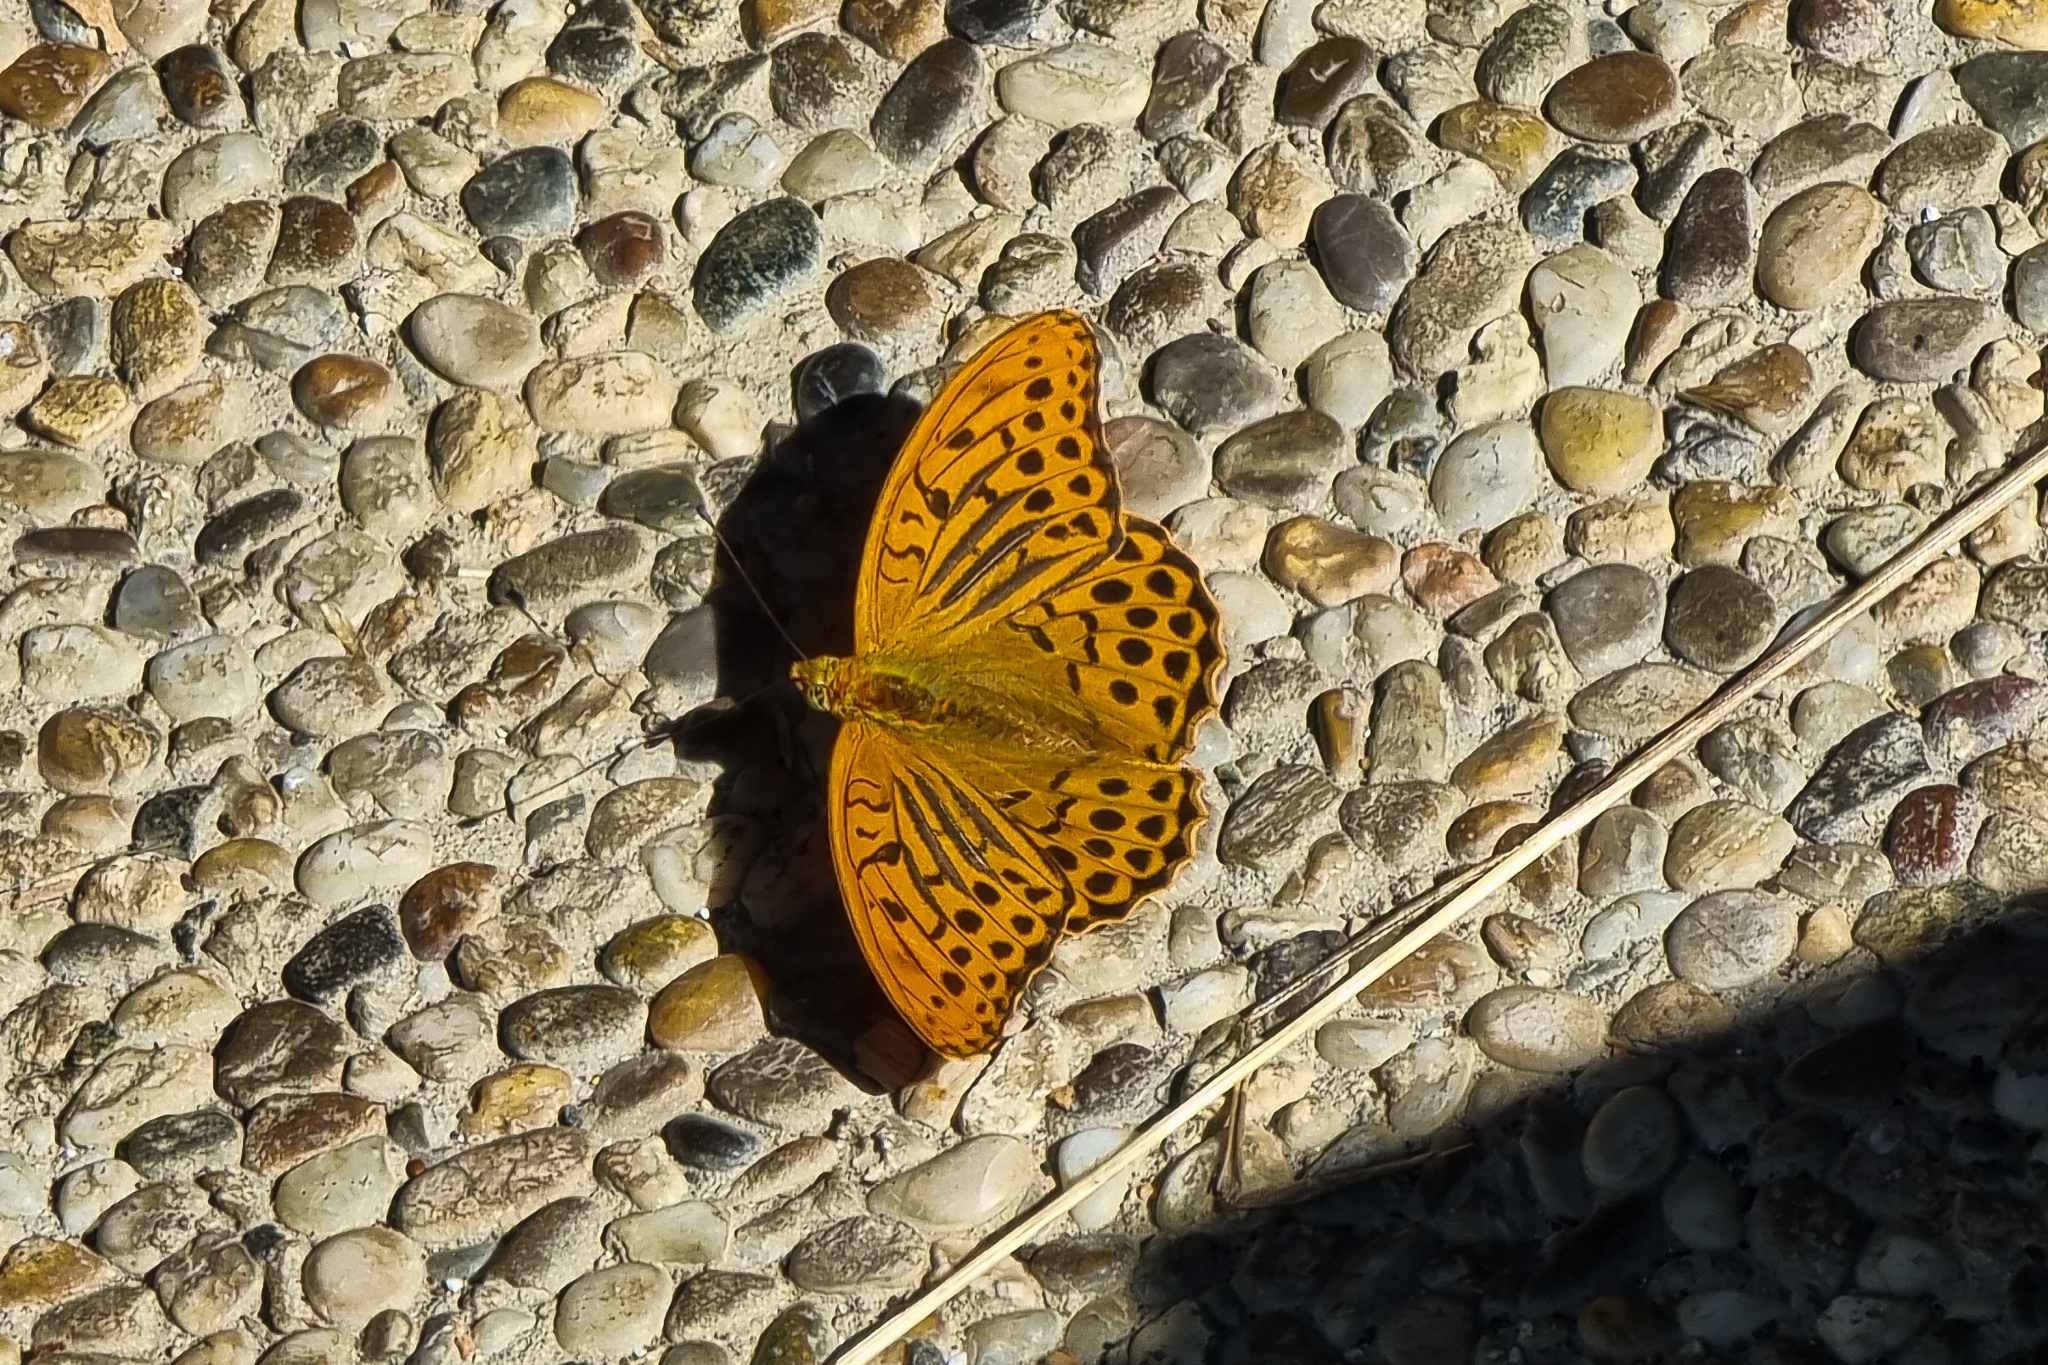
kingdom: Animalia
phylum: Arthropoda
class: Insecta
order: Lepidoptera
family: Nymphalidae
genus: Argynnis
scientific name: Argynnis paphia
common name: Silver-washed fritillary
